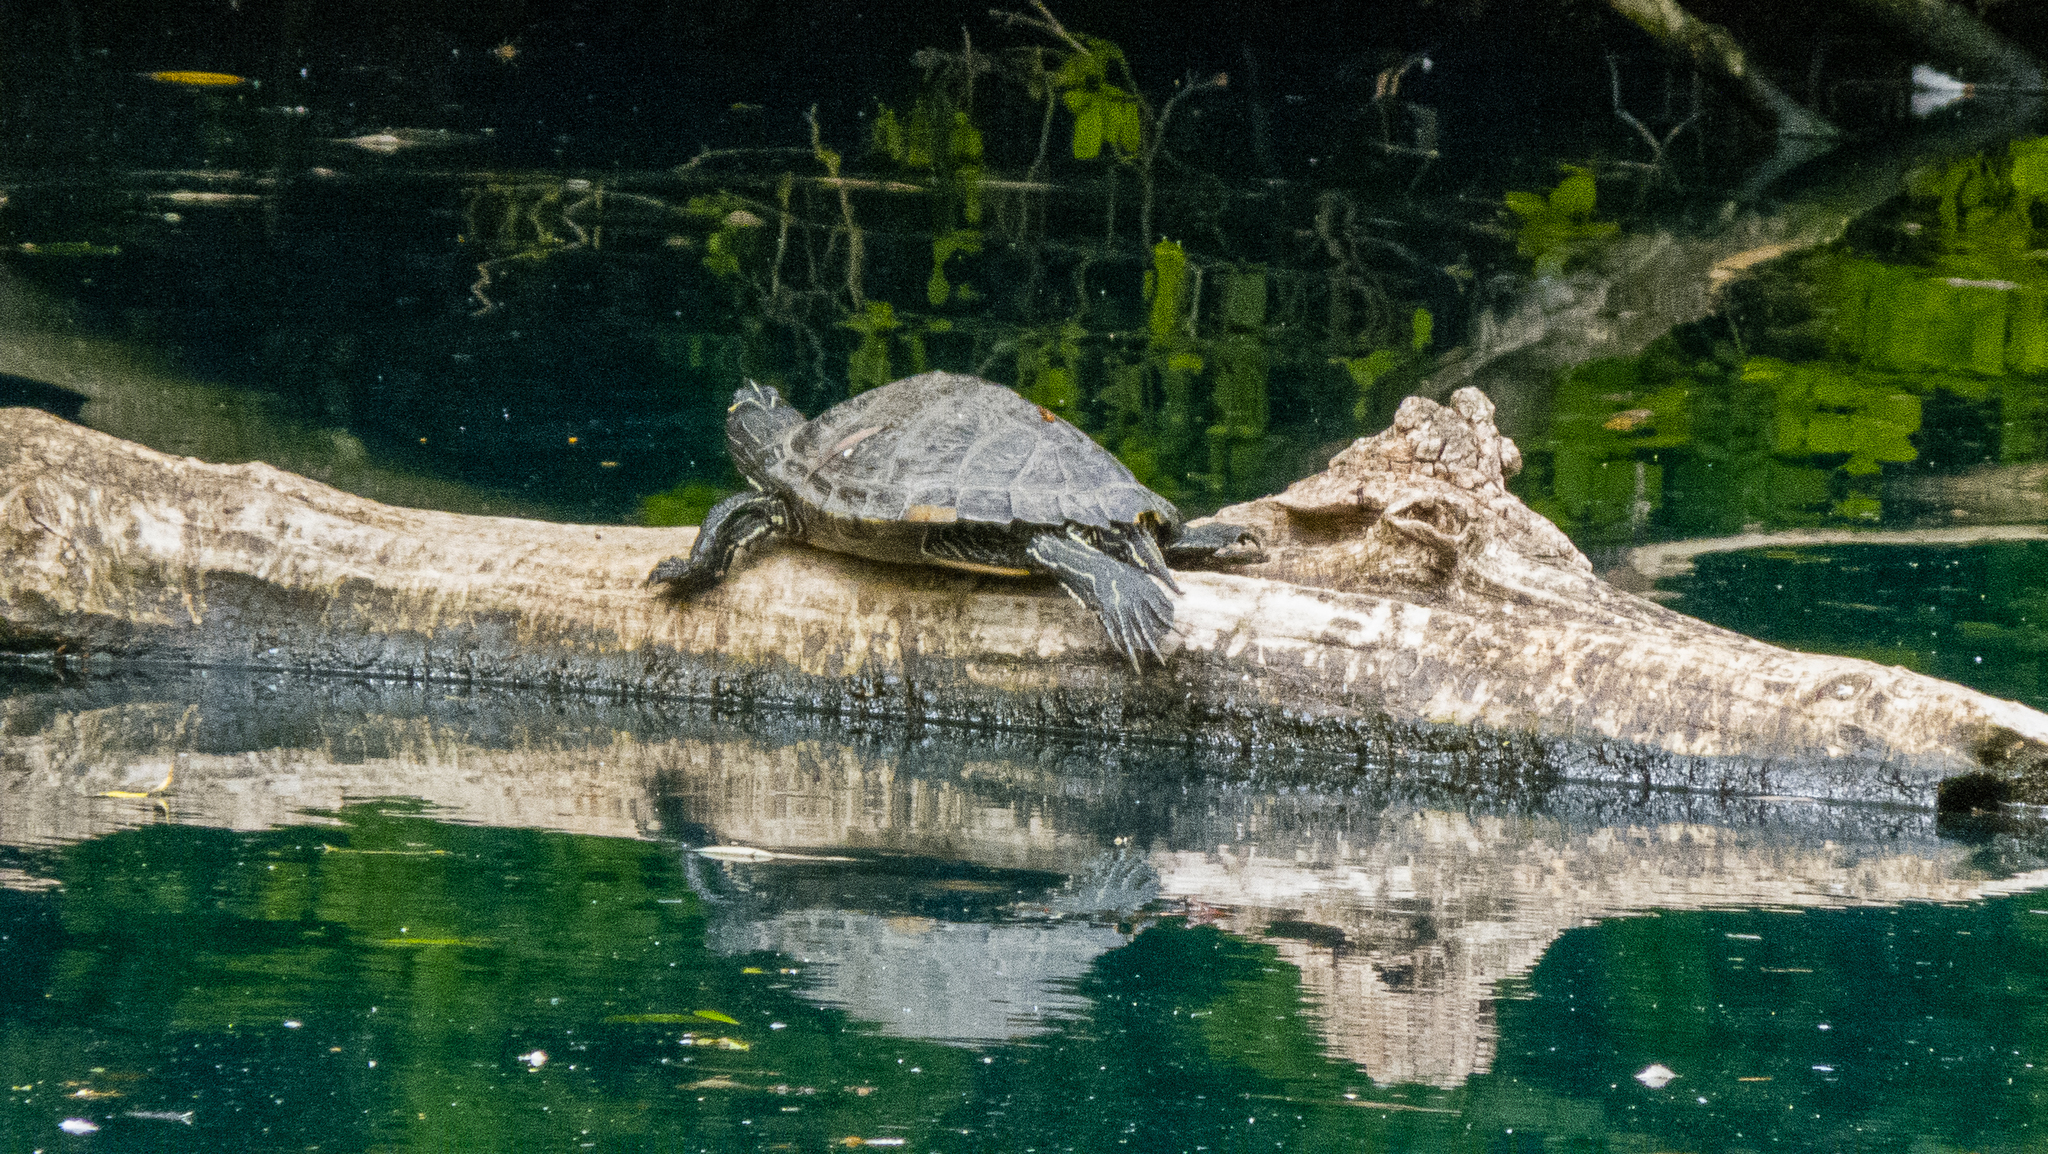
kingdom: Animalia
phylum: Chordata
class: Testudines
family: Emydidae
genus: Trachemys
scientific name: Trachemys scripta
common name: Slider
